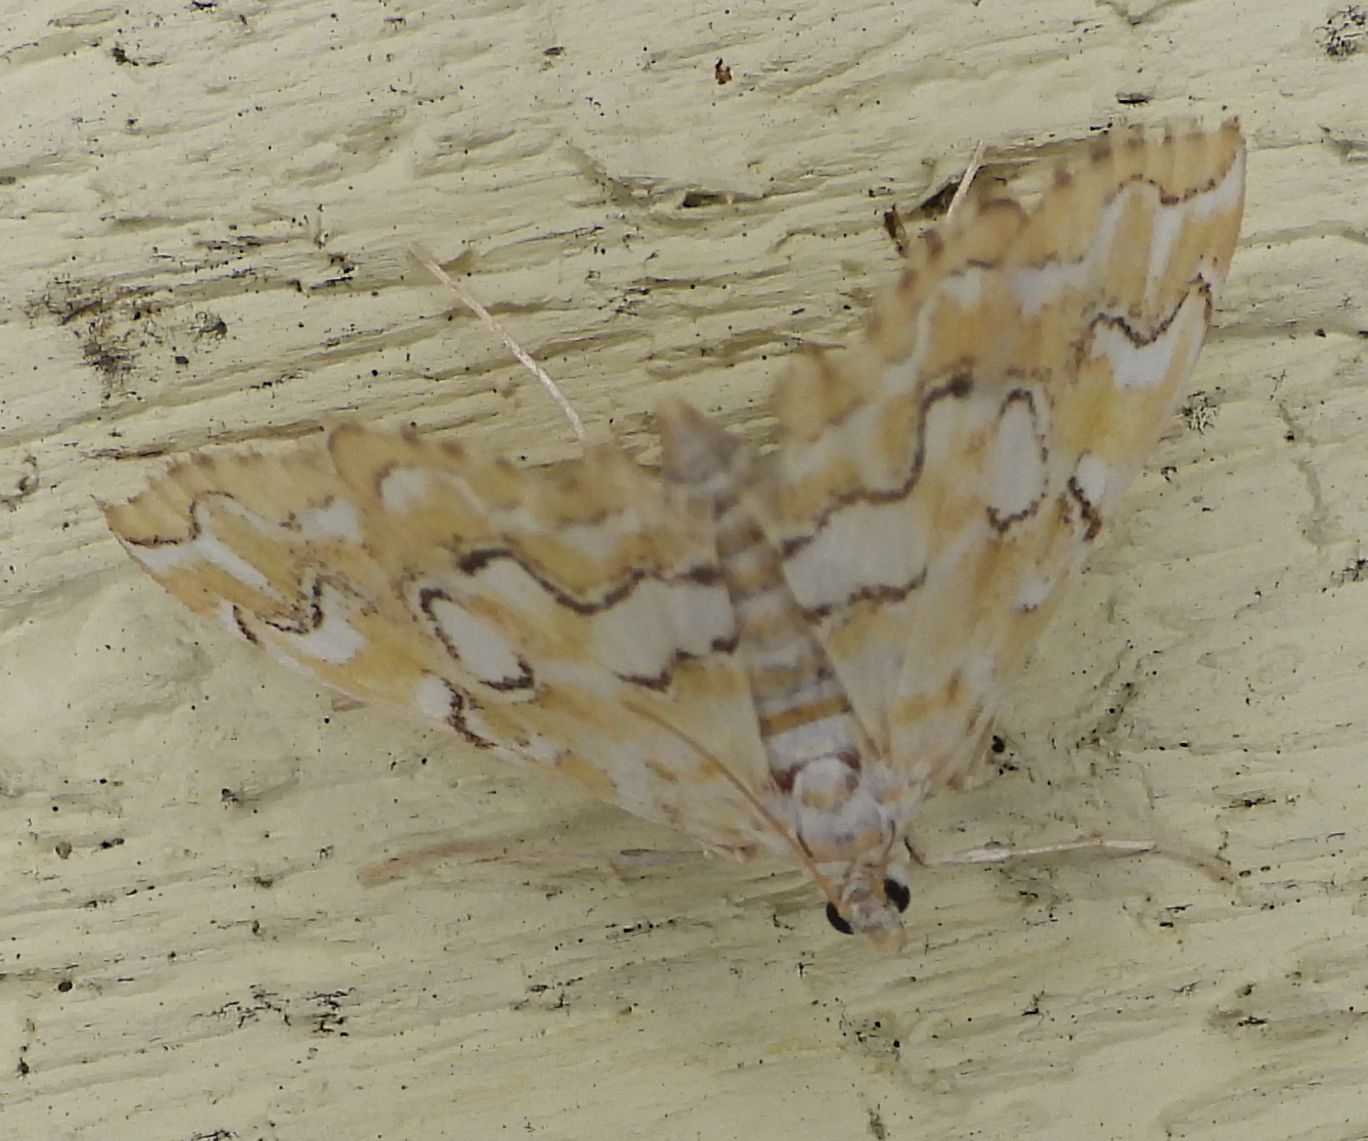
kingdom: Animalia
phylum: Arthropoda
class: Insecta
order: Lepidoptera
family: Crambidae
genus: Elophila
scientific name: Elophila icciusalis
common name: Pondside pyralid moth
